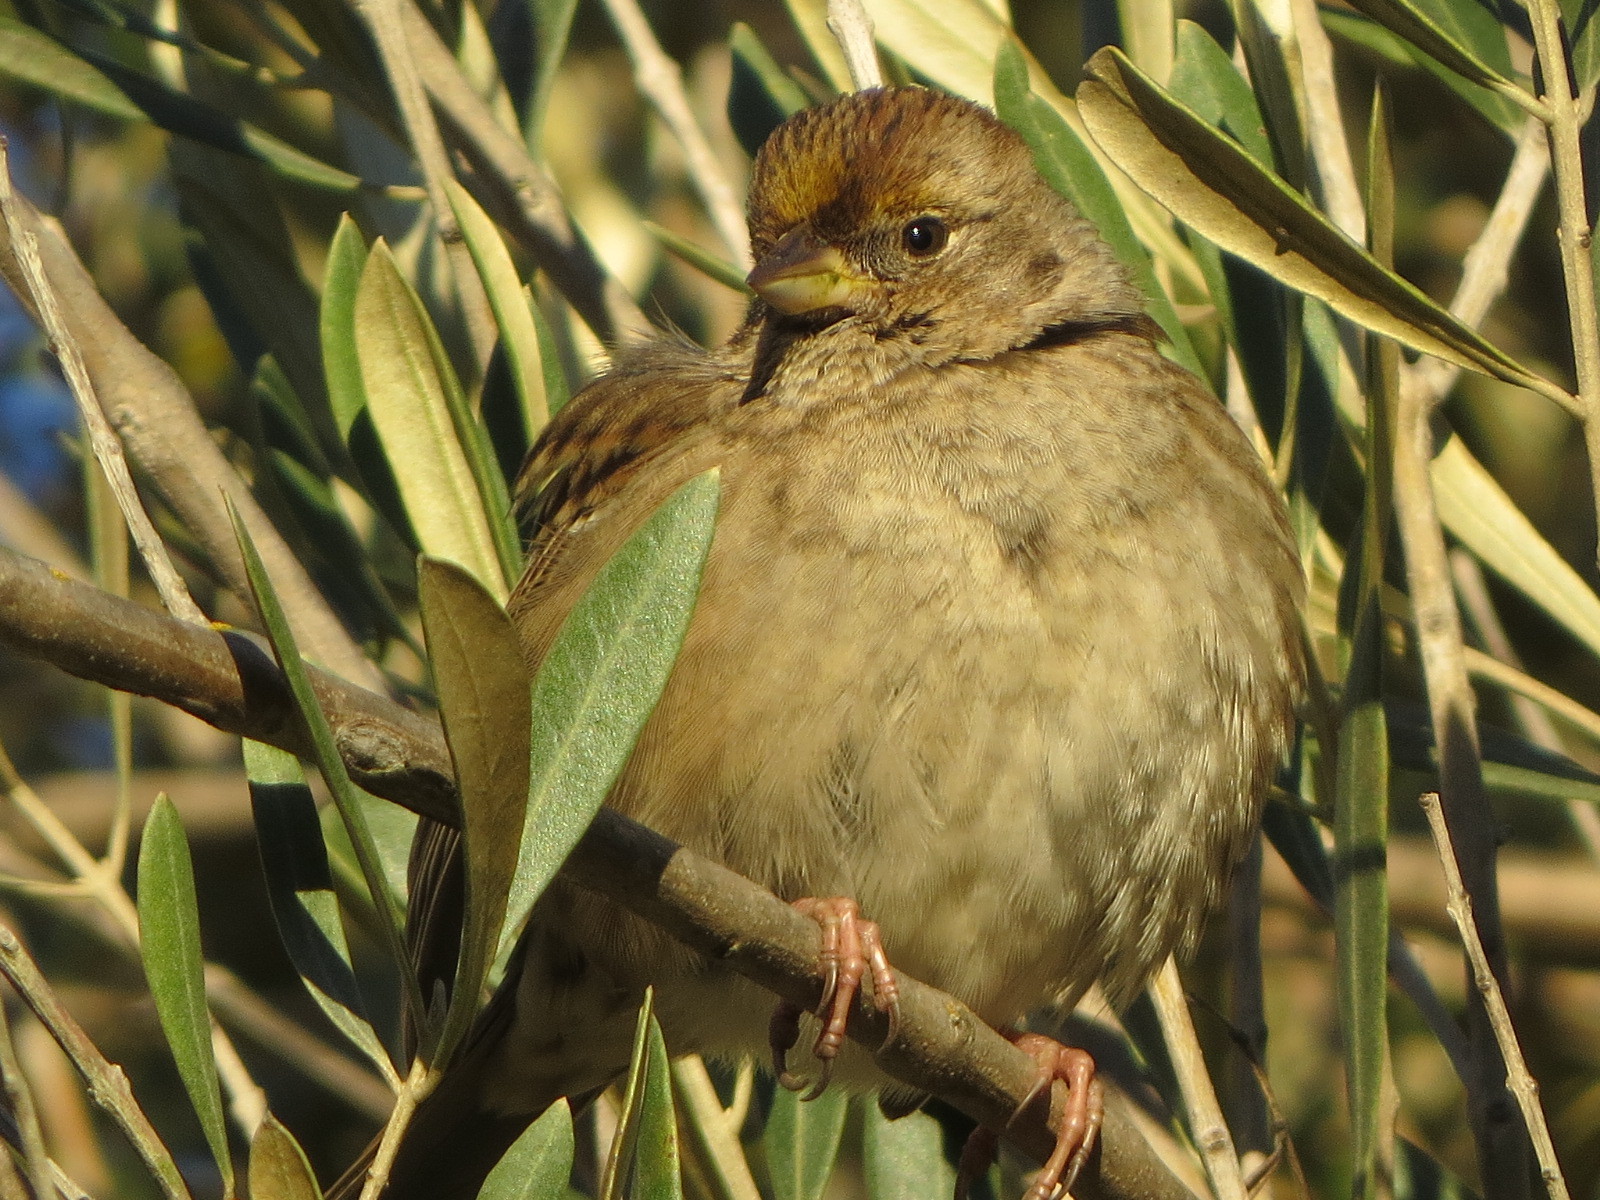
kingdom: Animalia
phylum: Chordata
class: Aves
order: Passeriformes
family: Passerellidae
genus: Zonotrichia
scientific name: Zonotrichia atricapilla
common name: Golden-crowned sparrow
